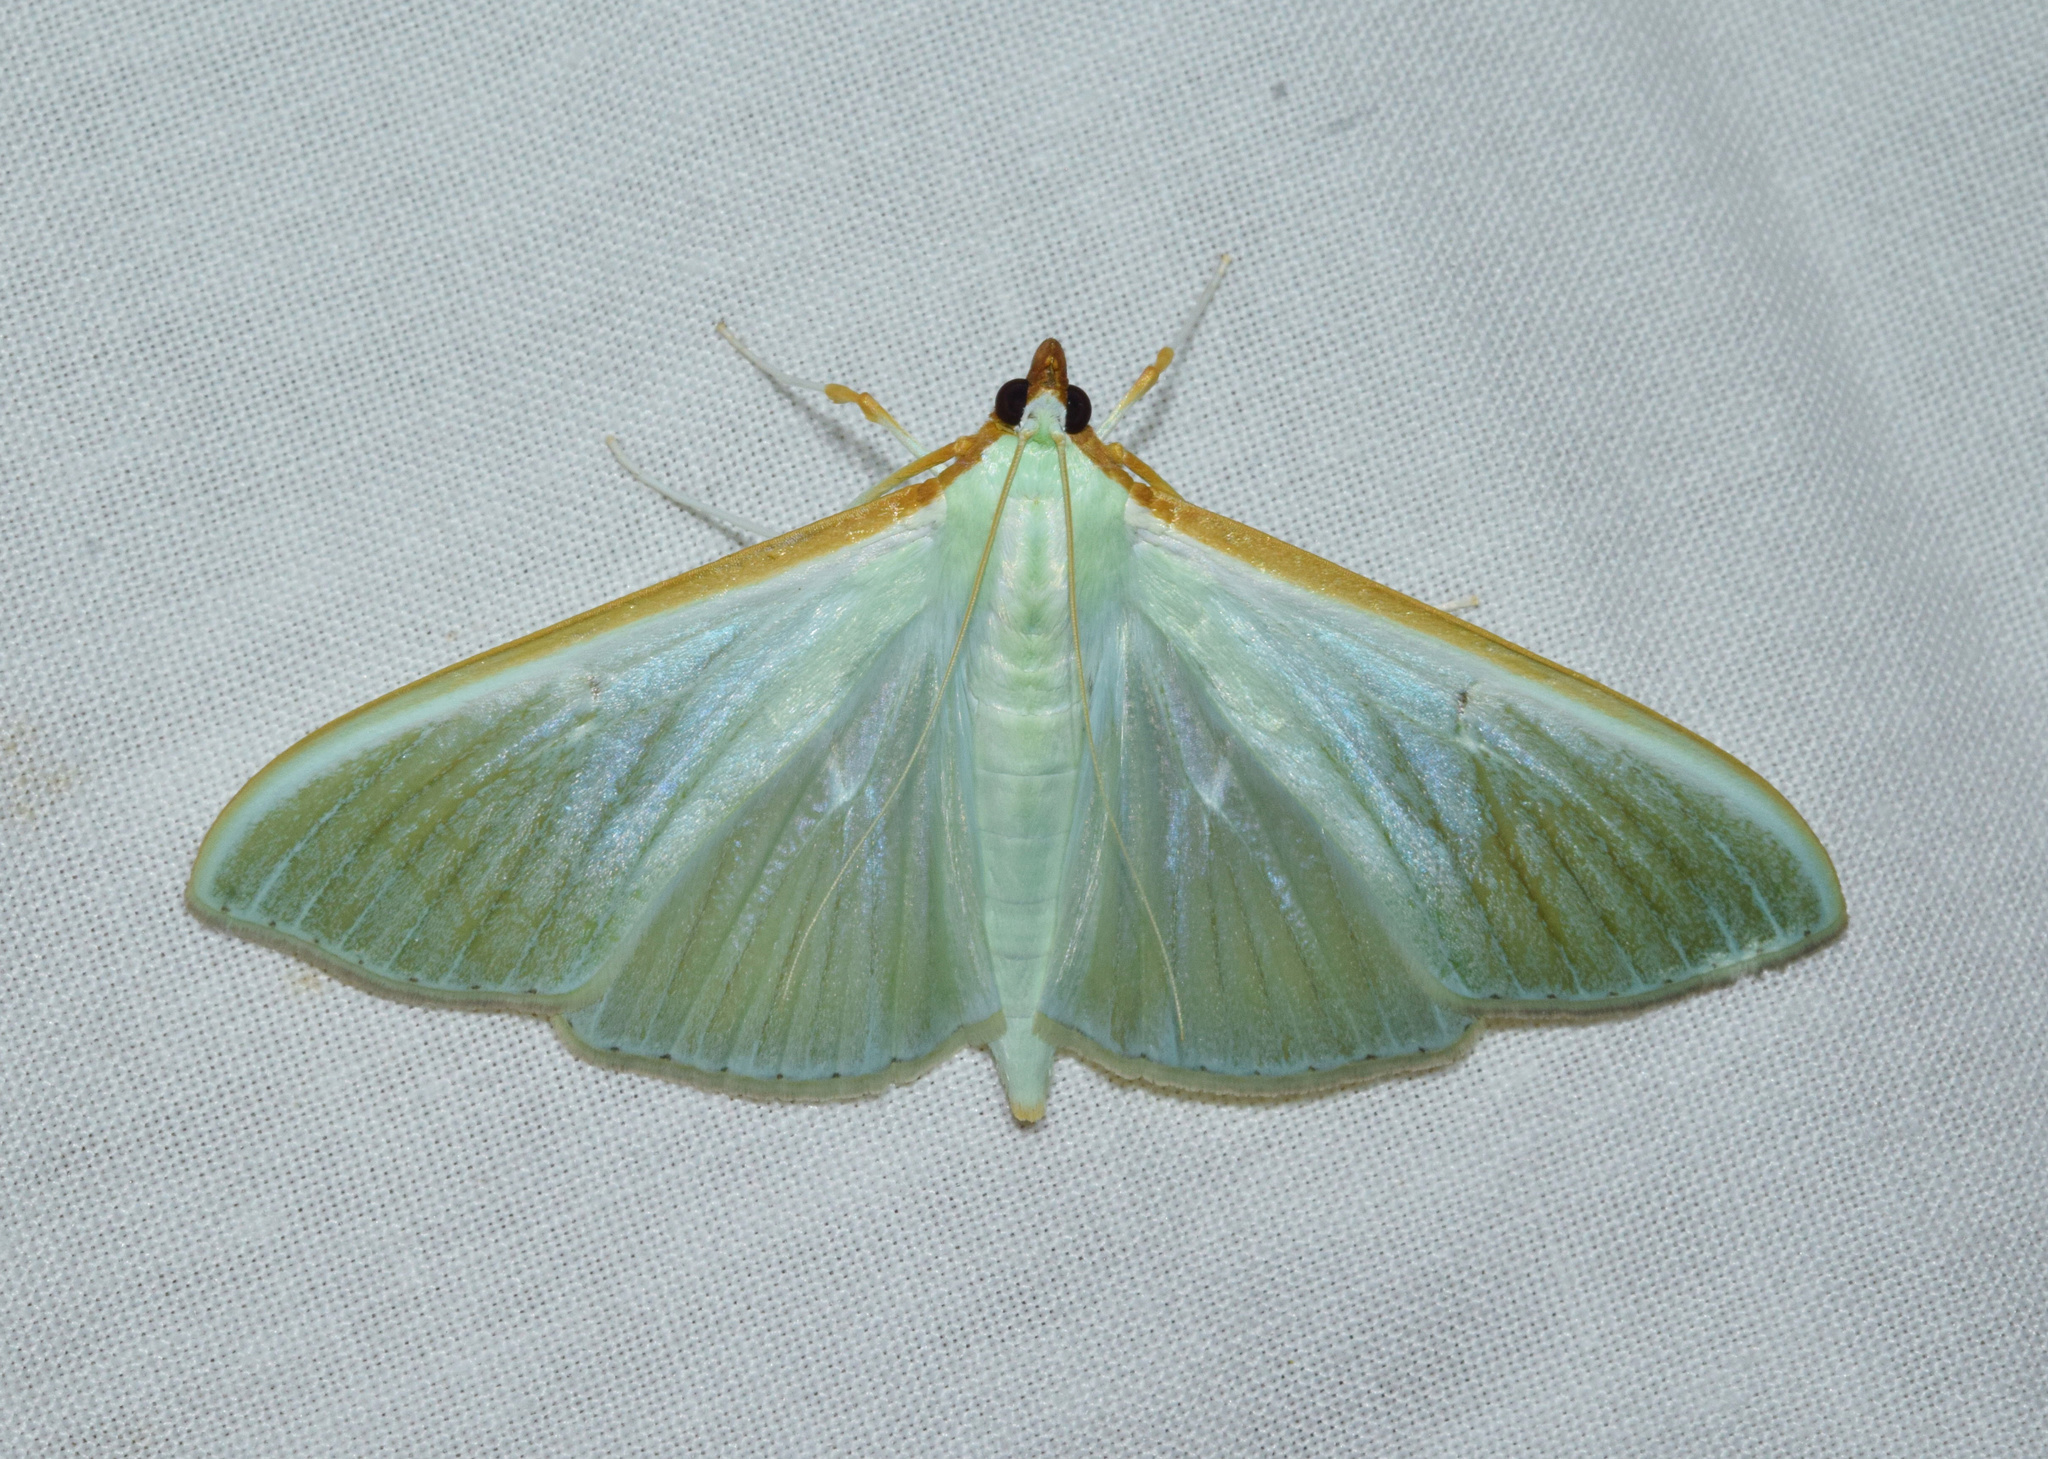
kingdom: Animalia
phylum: Arthropoda
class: Insecta
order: Lepidoptera
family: Crambidae
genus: Stemorrhages
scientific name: Stemorrhages sericea
